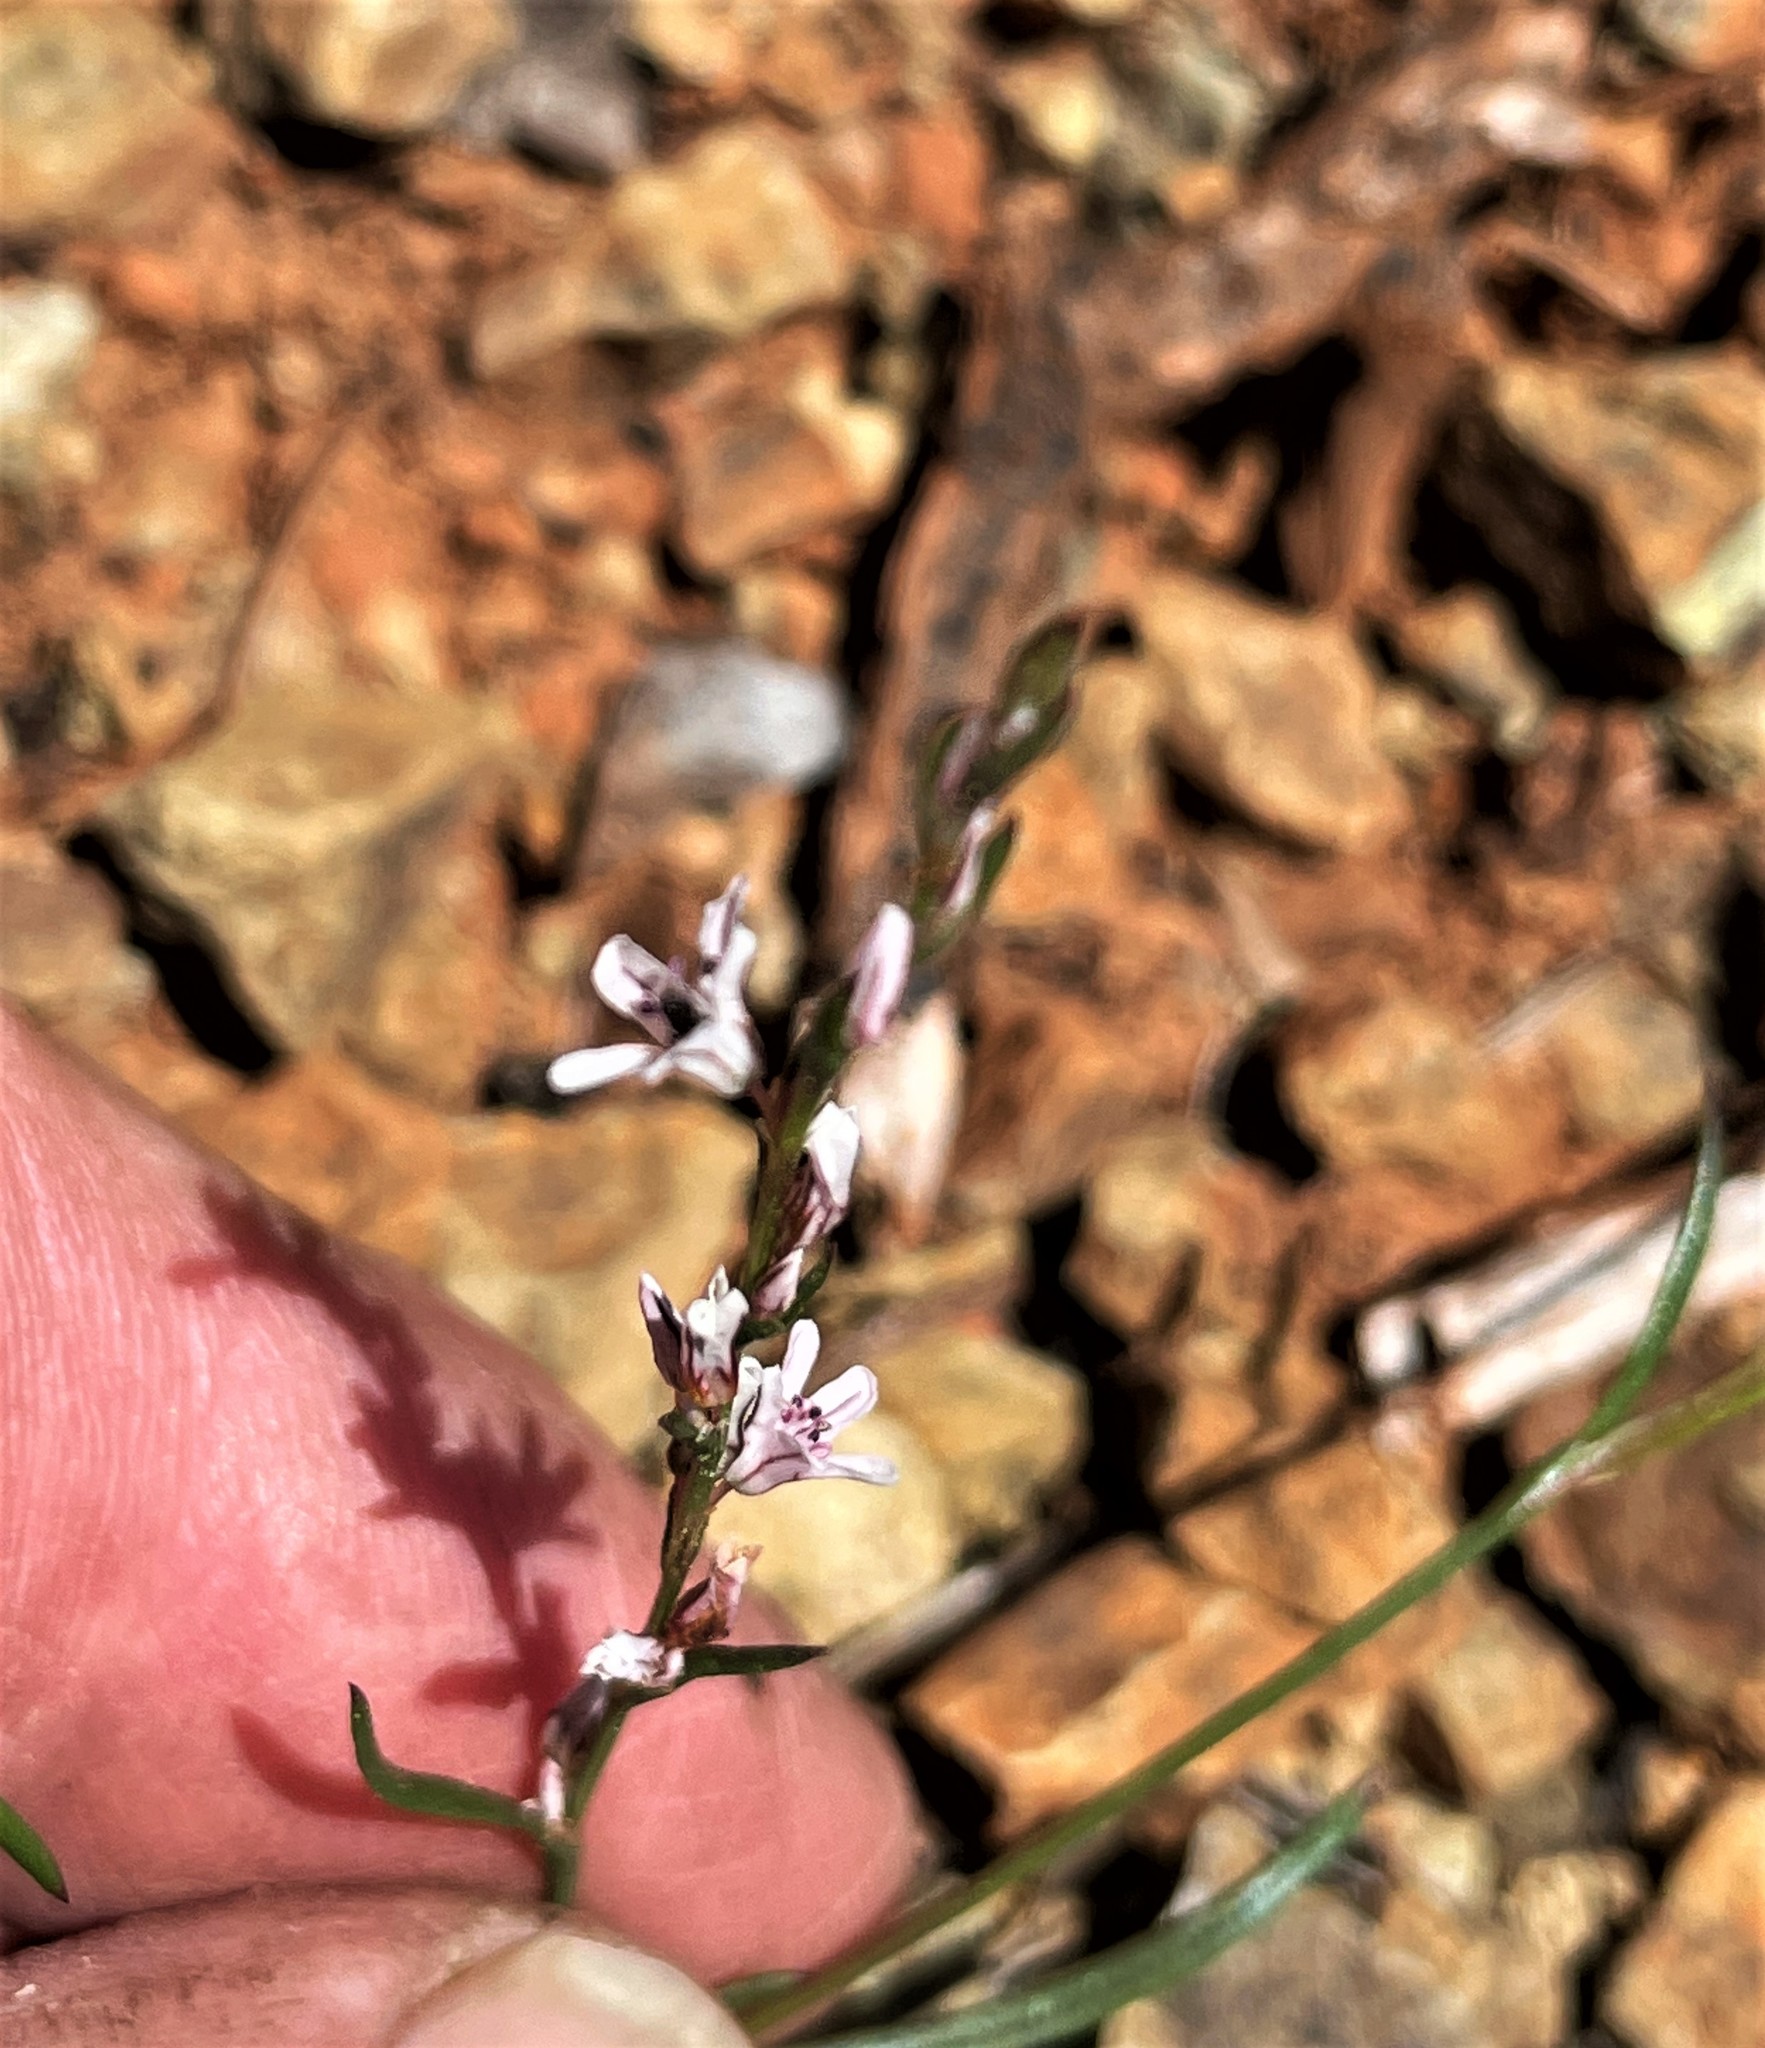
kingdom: Plantae
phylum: Tracheophyta
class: Magnoliopsida
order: Caryophyllales
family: Polygonaceae
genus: Polygonum
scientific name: Polygonum spergulariiforme
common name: Fall knotweed
